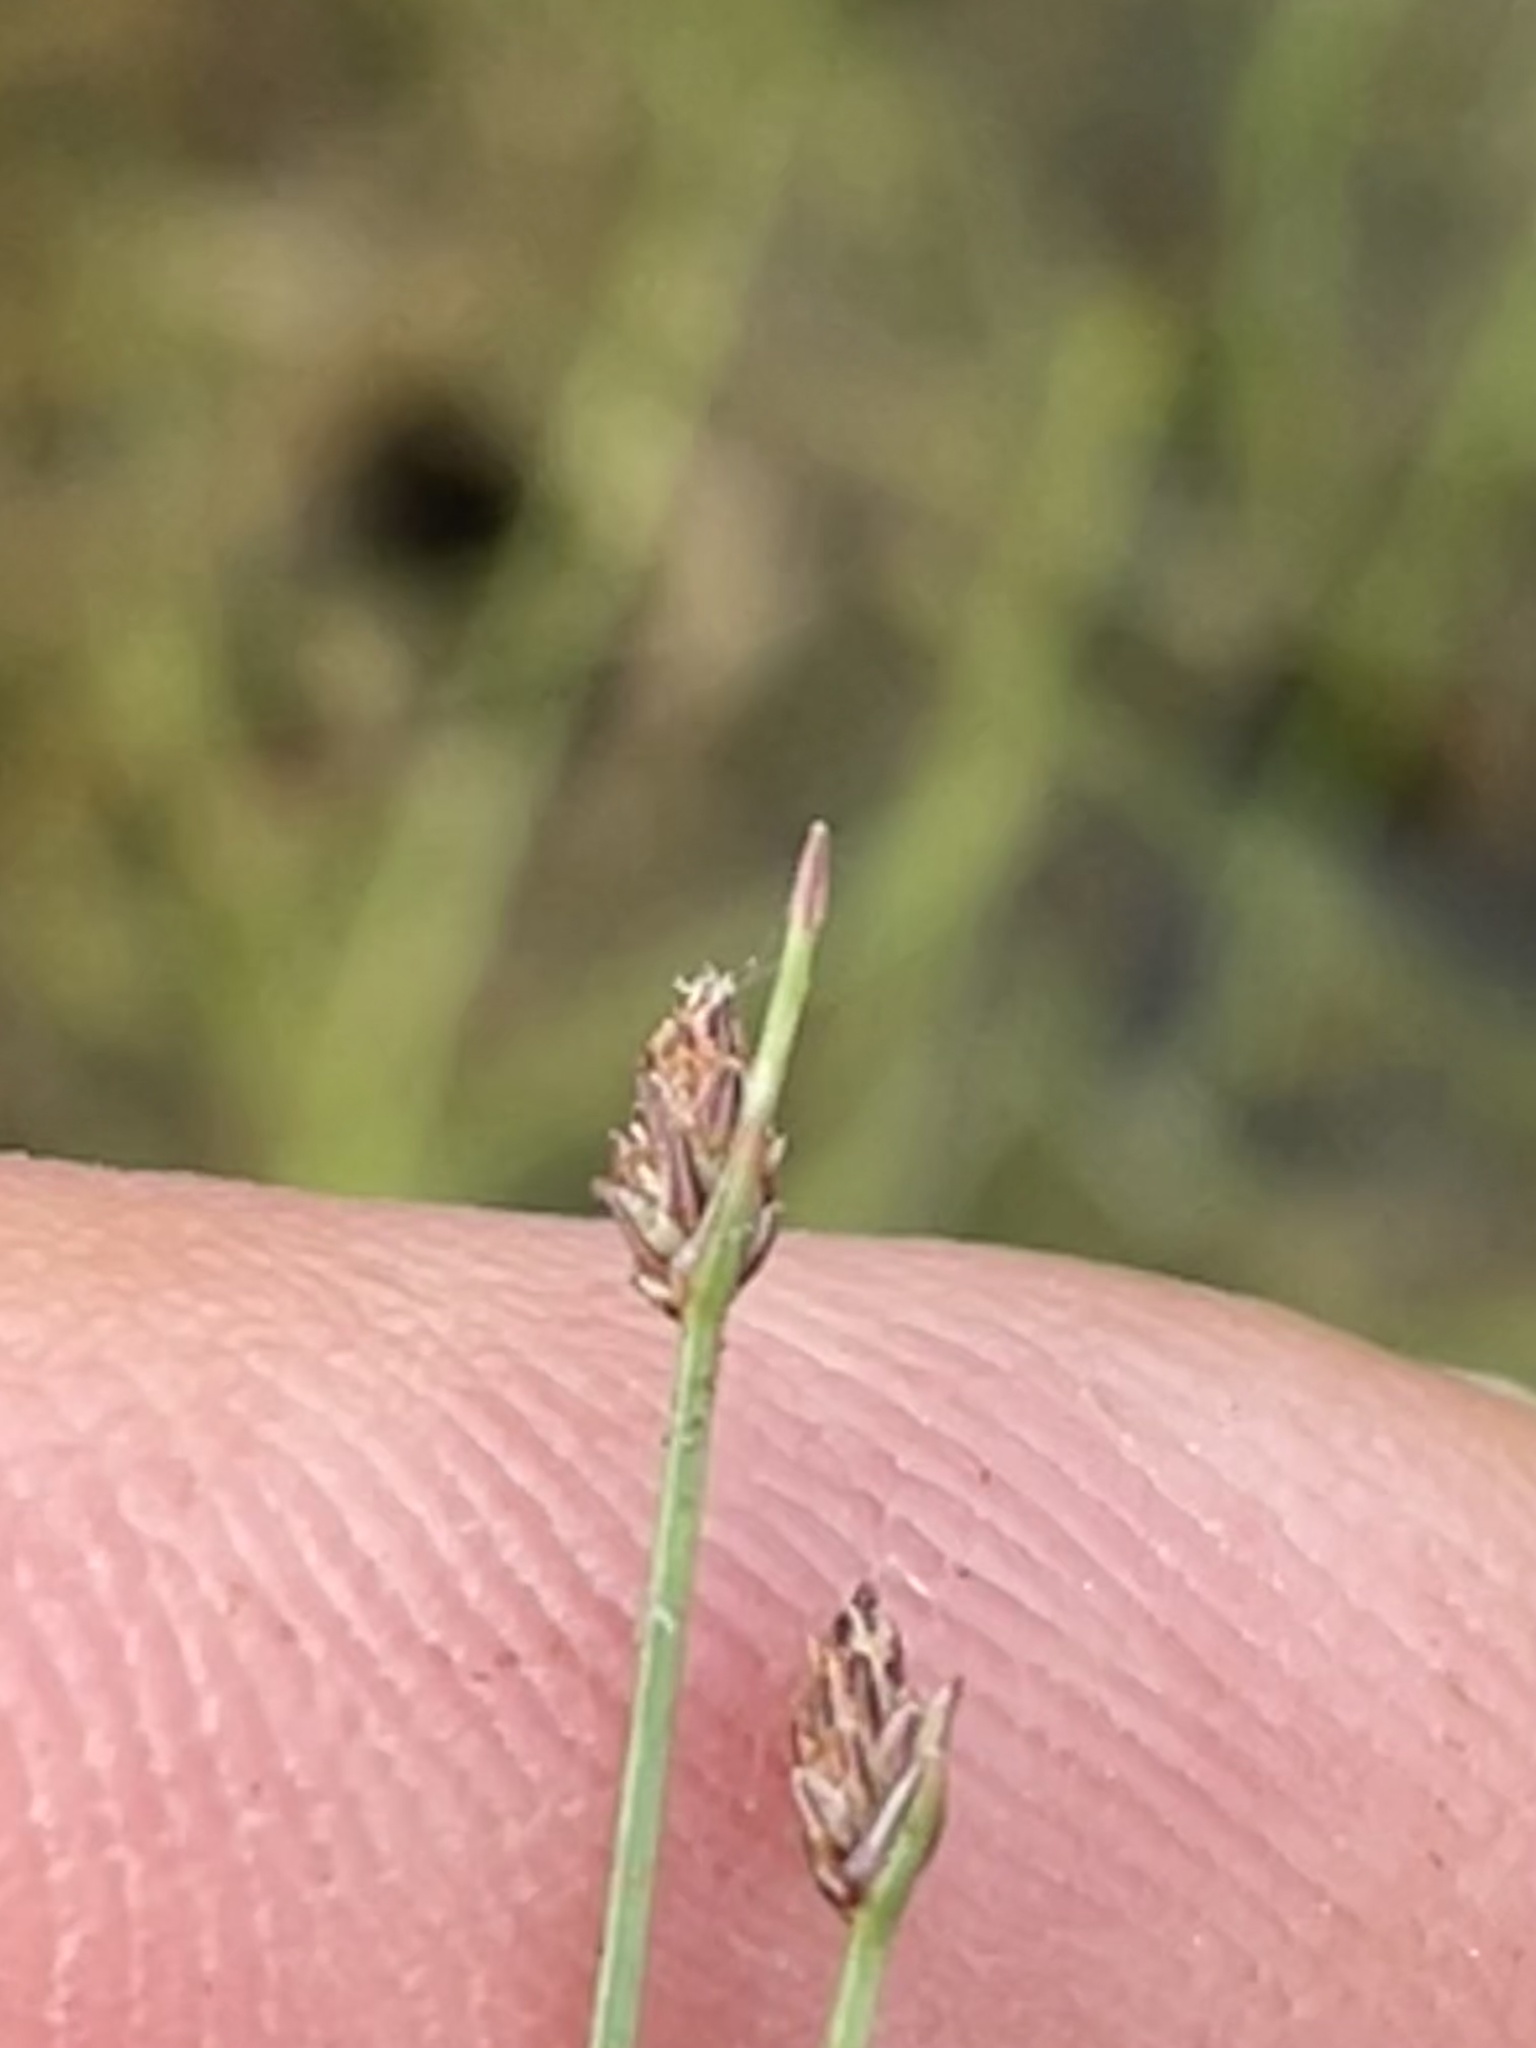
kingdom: Plantae
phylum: Tracheophyta
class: Liliopsida
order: Poales
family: Cyperaceae
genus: Eleocharis
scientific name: Eleocharis baldwinii
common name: Baldwin's spike-rush
